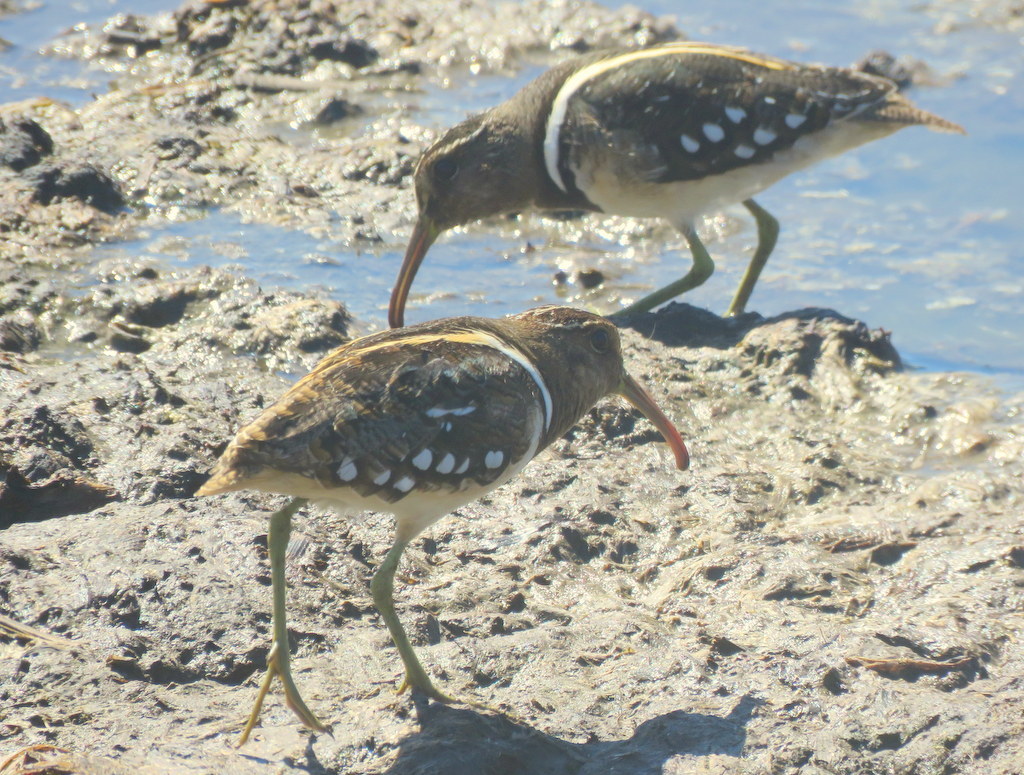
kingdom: Animalia
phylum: Chordata
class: Aves
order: Charadriiformes
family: Rostratulidae
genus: Nycticryphes
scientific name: Nycticryphes semicollaris
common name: South american painted-snipe
